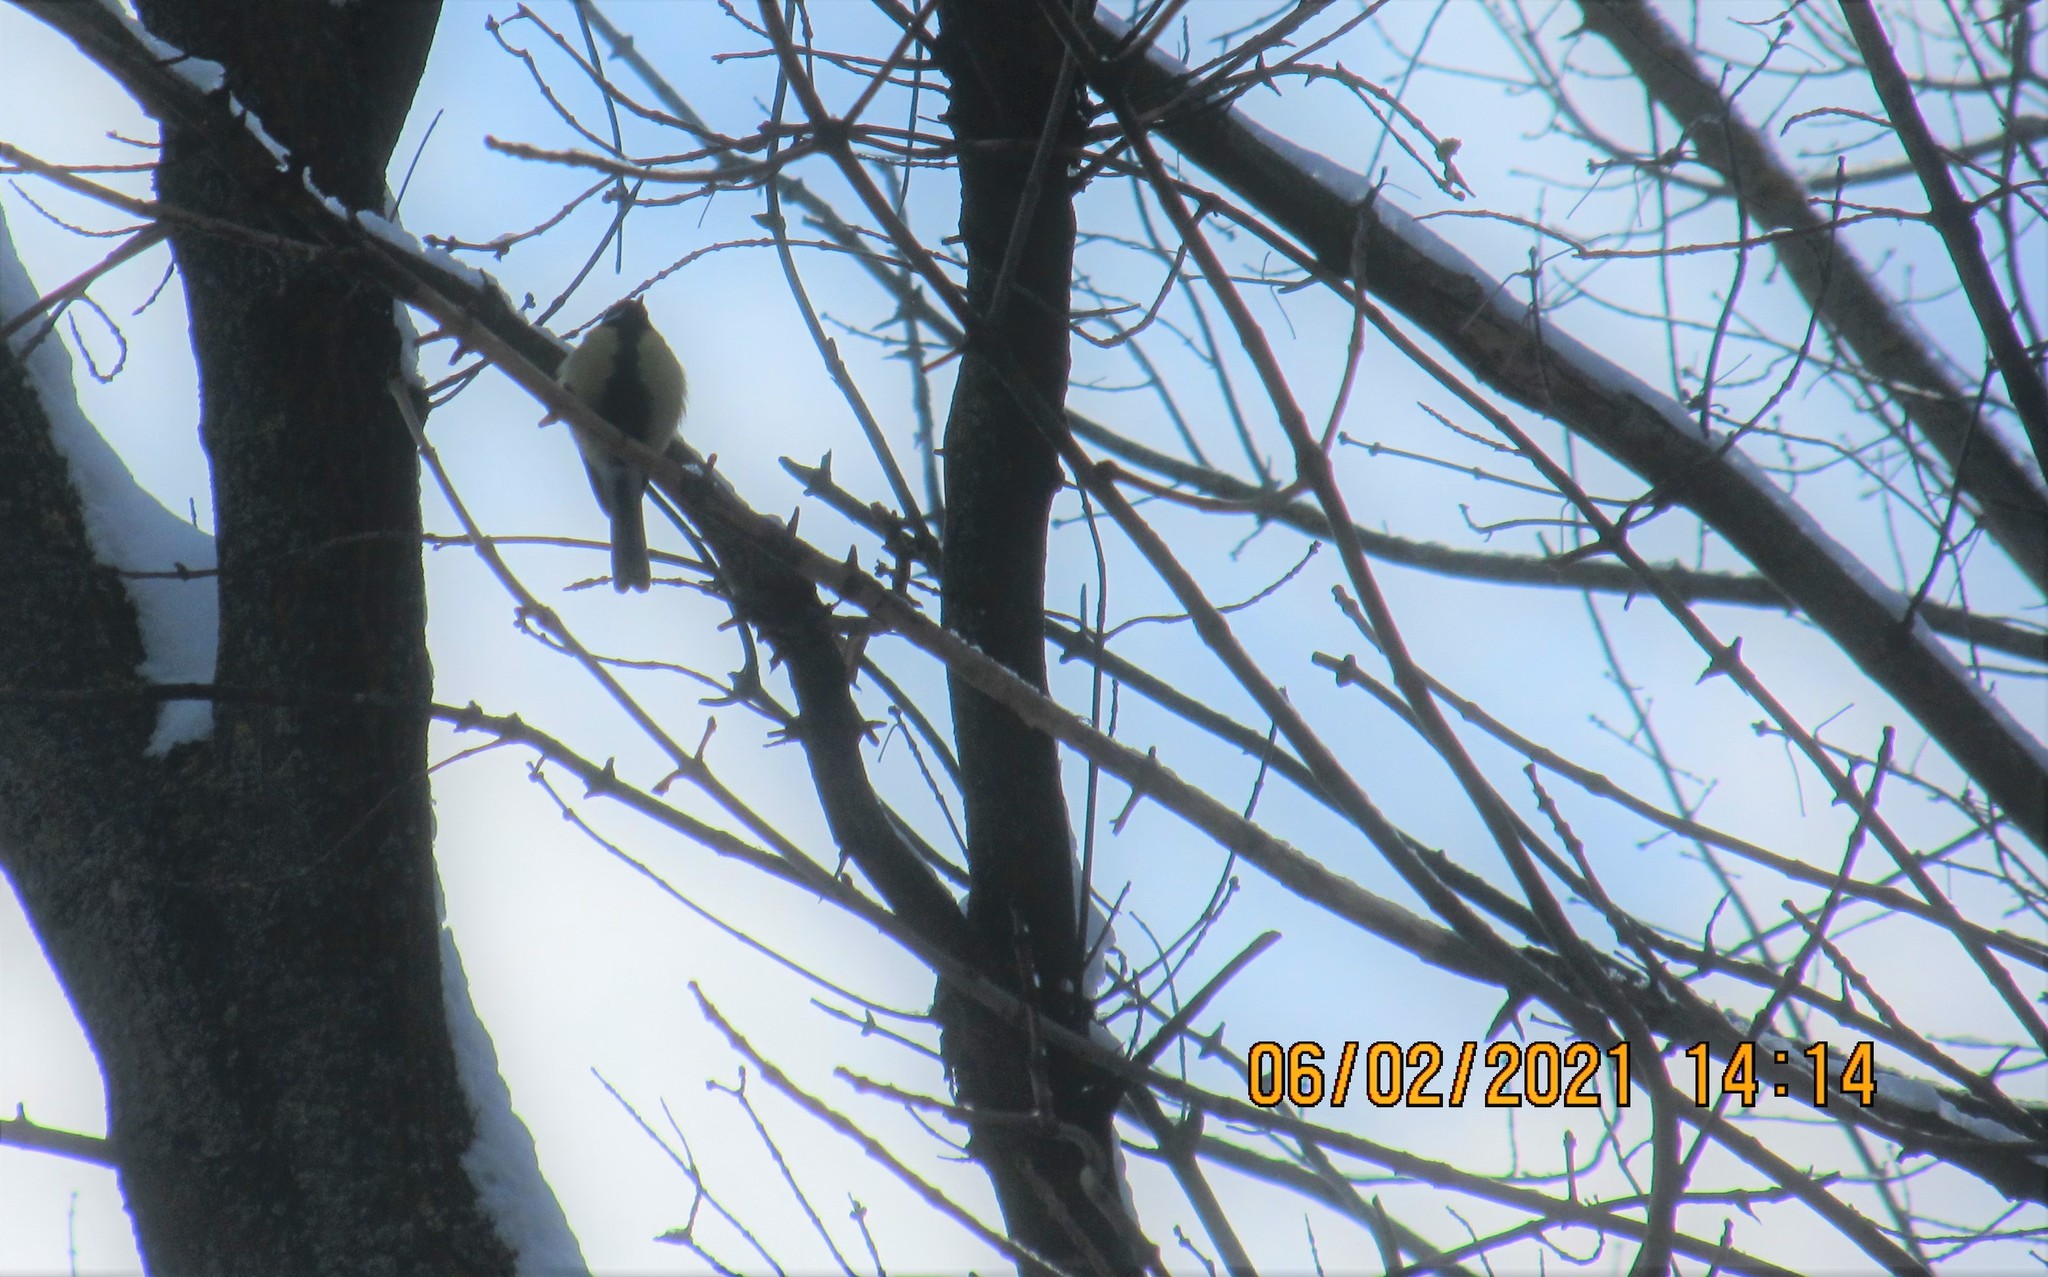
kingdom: Animalia
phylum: Chordata
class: Aves
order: Passeriformes
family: Paridae
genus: Parus
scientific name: Parus major
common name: Great tit
